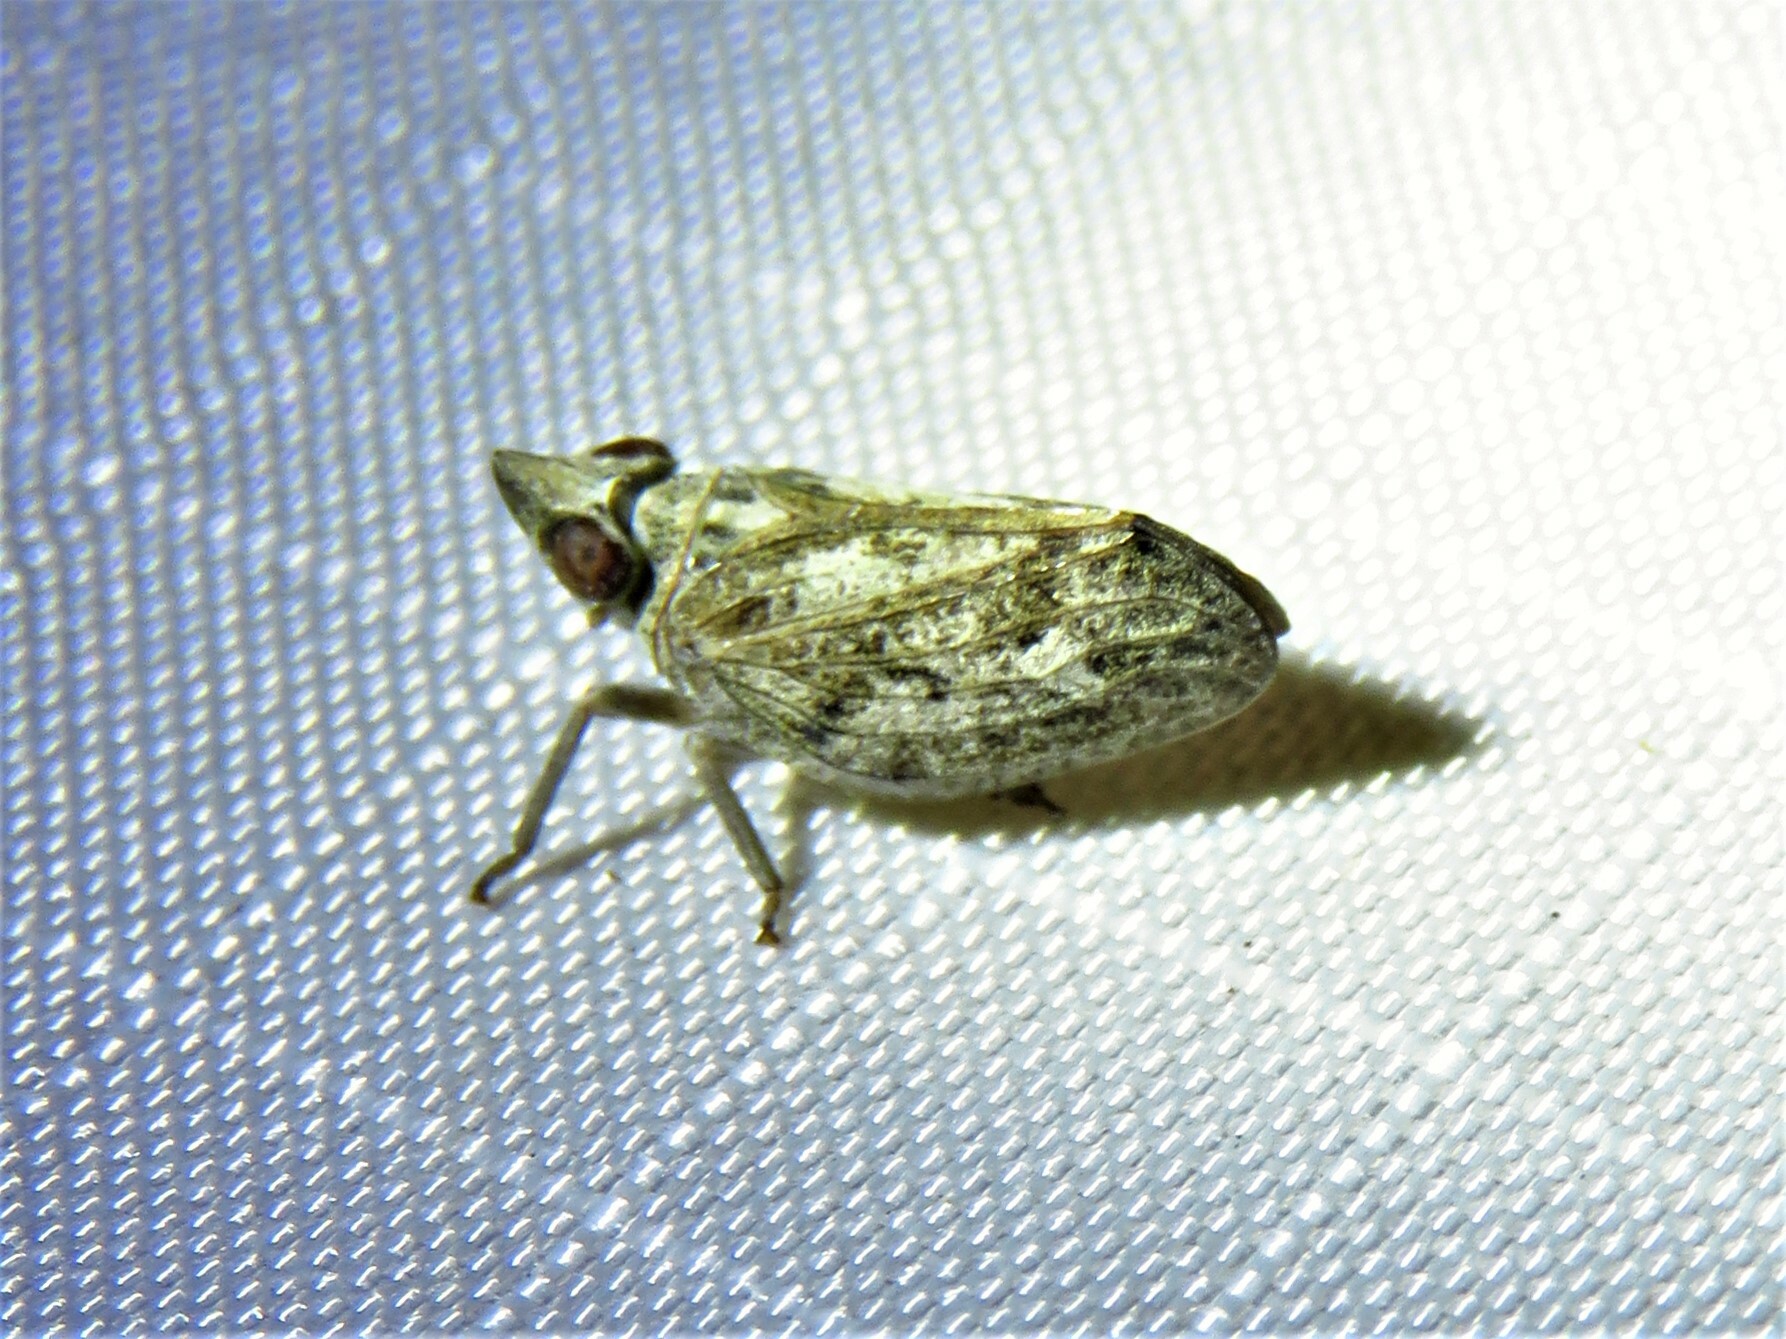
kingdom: Animalia
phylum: Arthropoda
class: Insecta
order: Hemiptera
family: Issidae
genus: Fowlerium
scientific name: Fowlerium acutum
